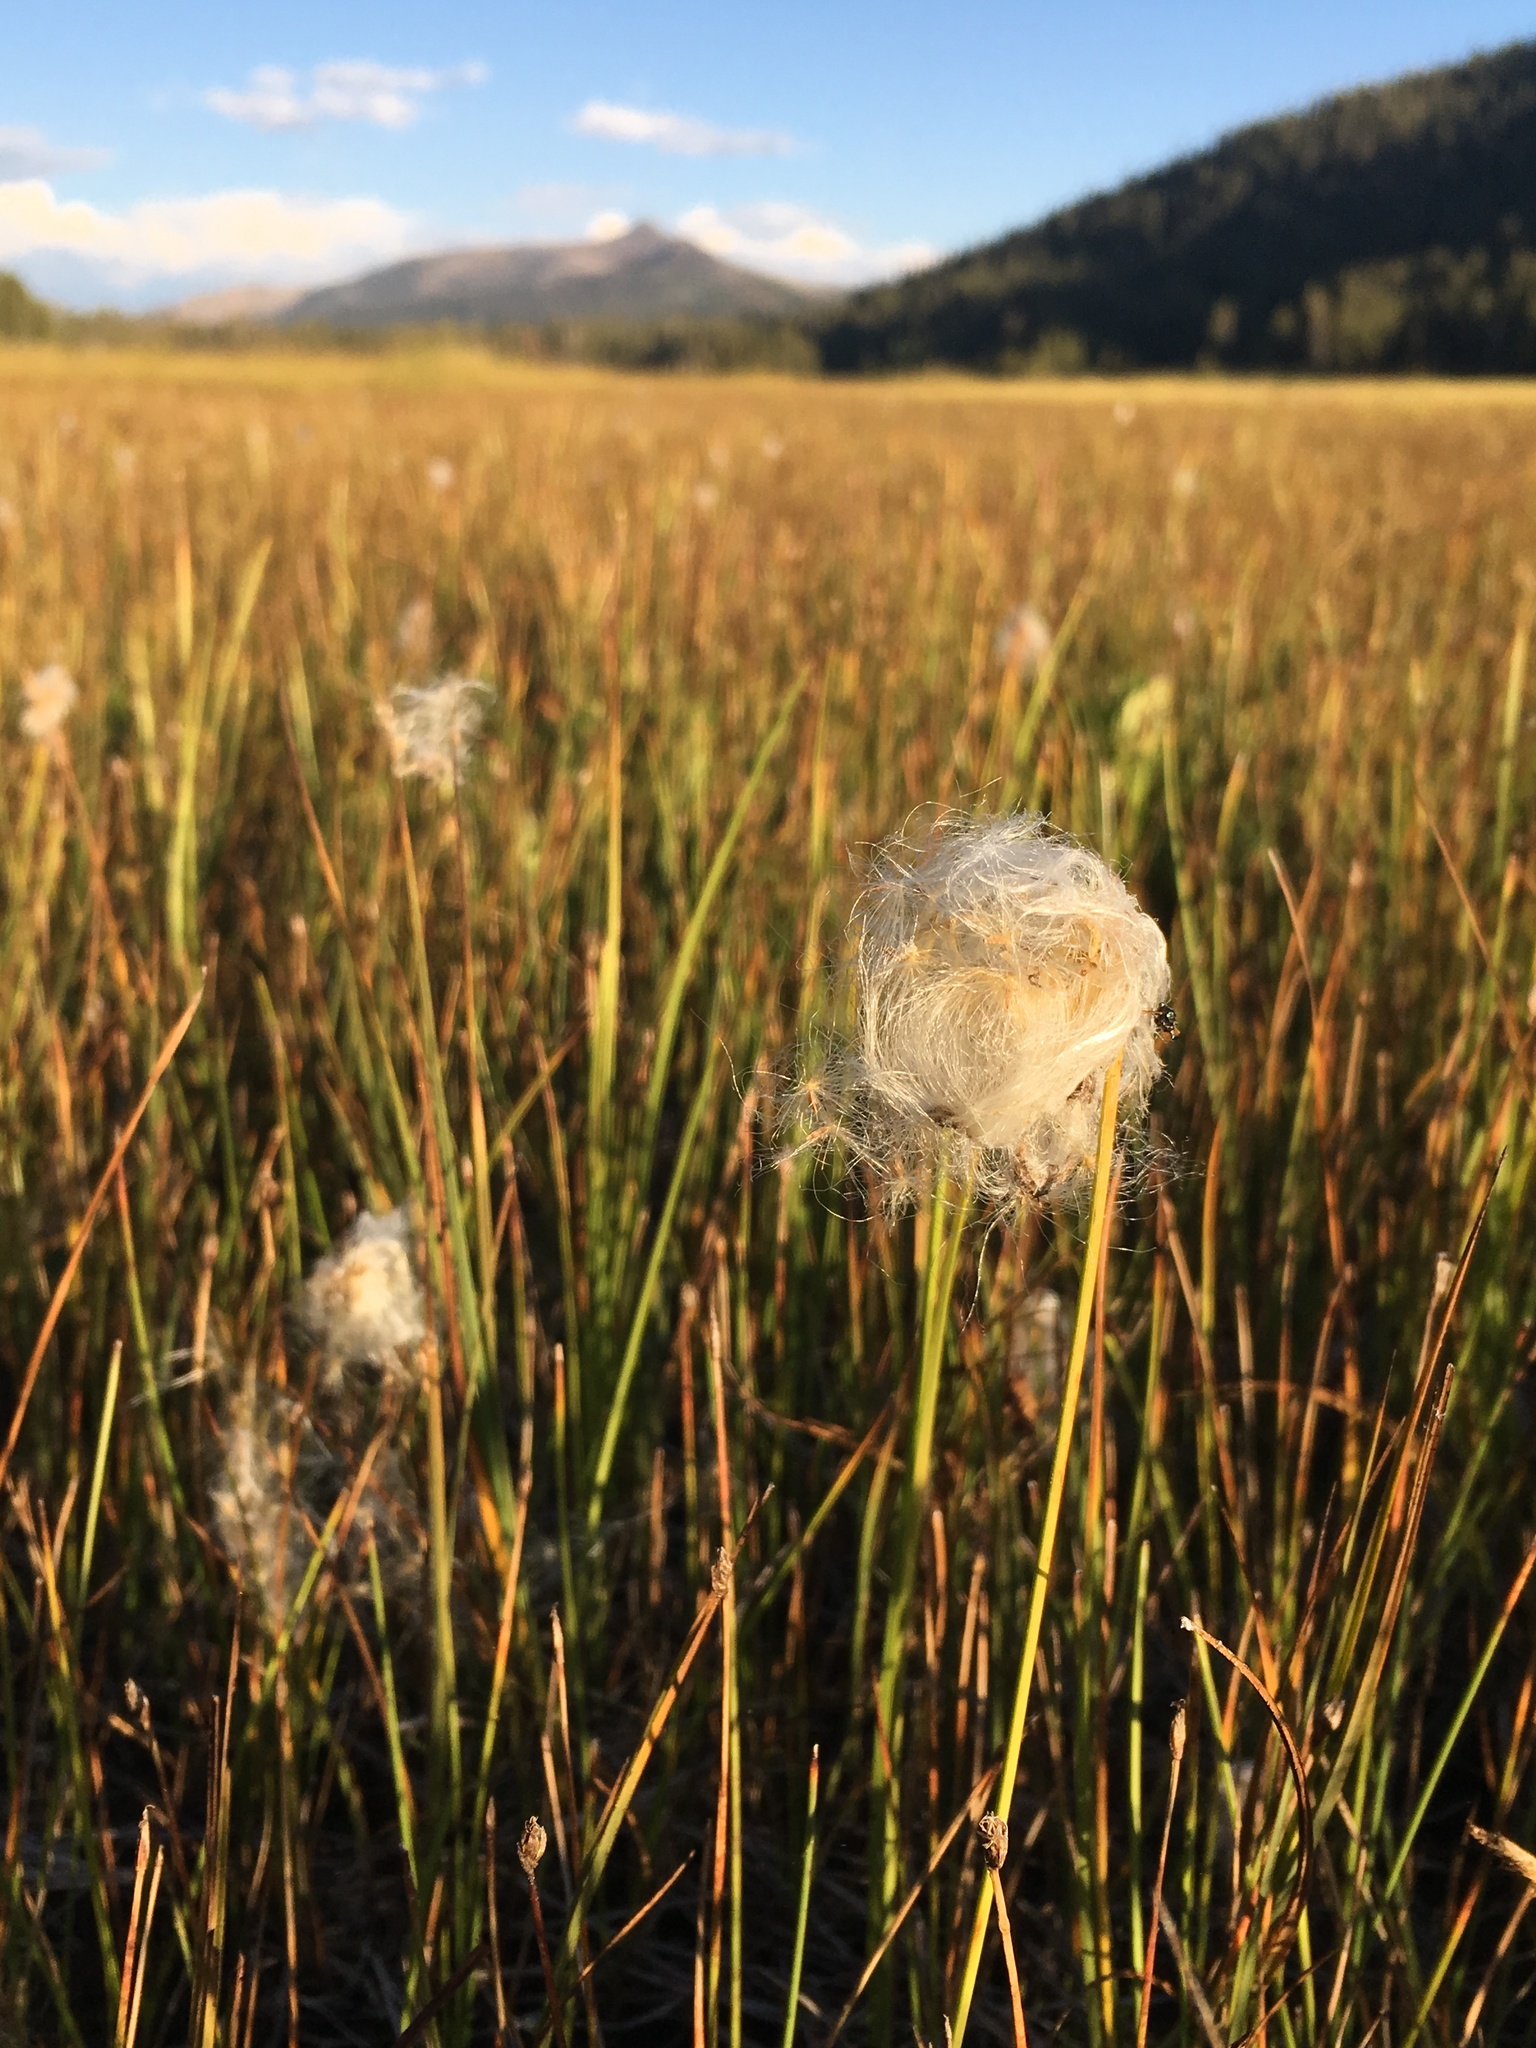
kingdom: Plantae
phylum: Tracheophyta
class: Liliopsida
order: Poales
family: Cyperaceae
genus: Eriophorum
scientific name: Eriophorum gracile
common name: Slender cottongrass
